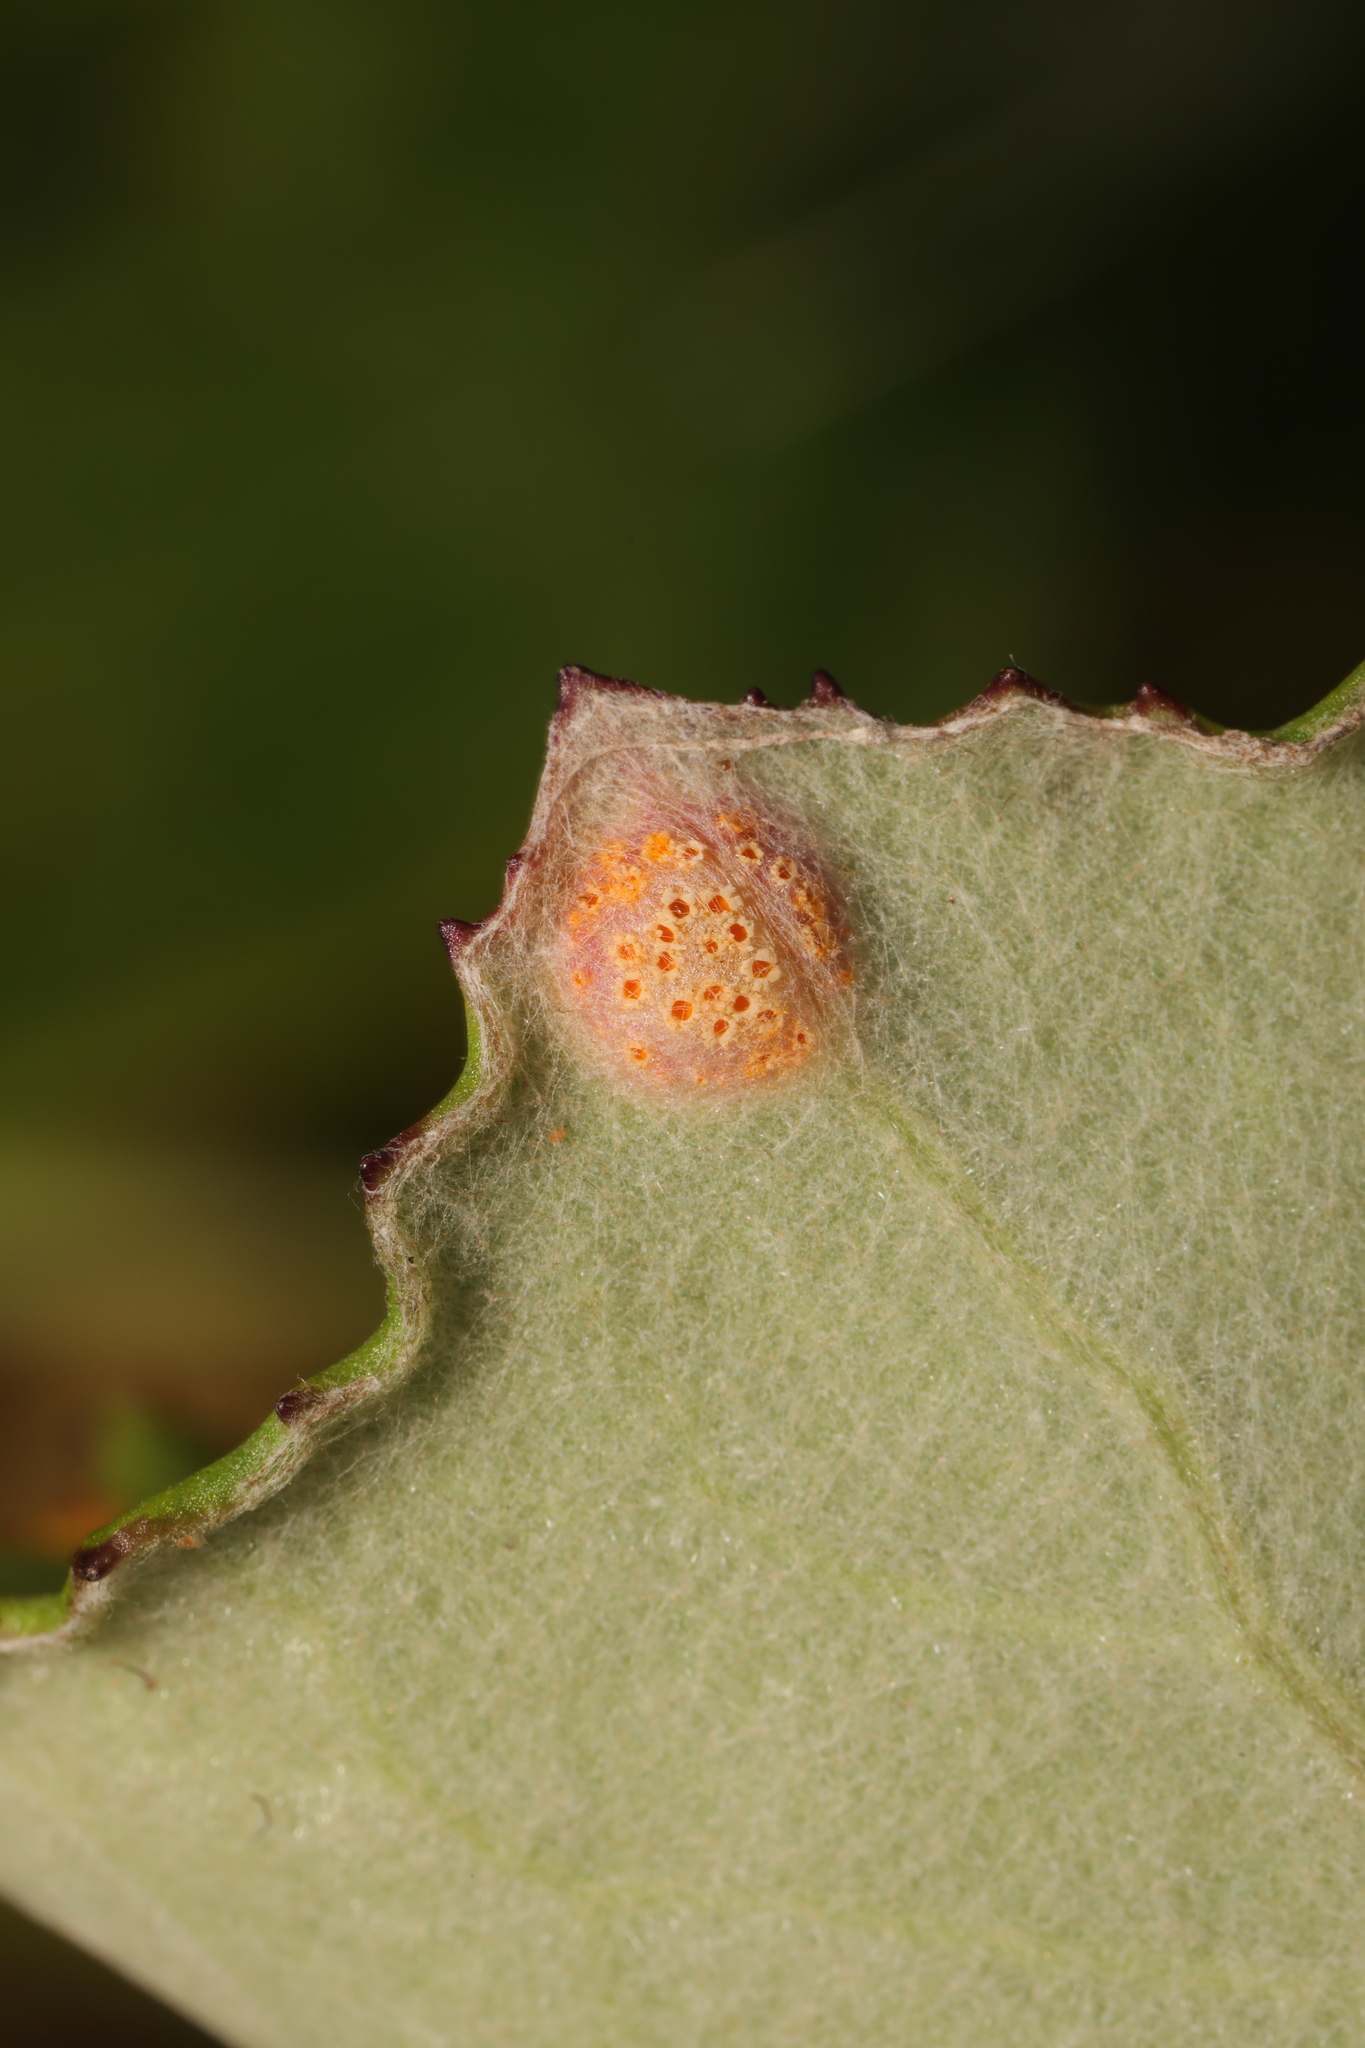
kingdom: Fungi
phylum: Basidiomycota
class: Pucciniomycetes
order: Pucciniales
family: Pucciniaceae
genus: Puccinia
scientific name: Puccinia
